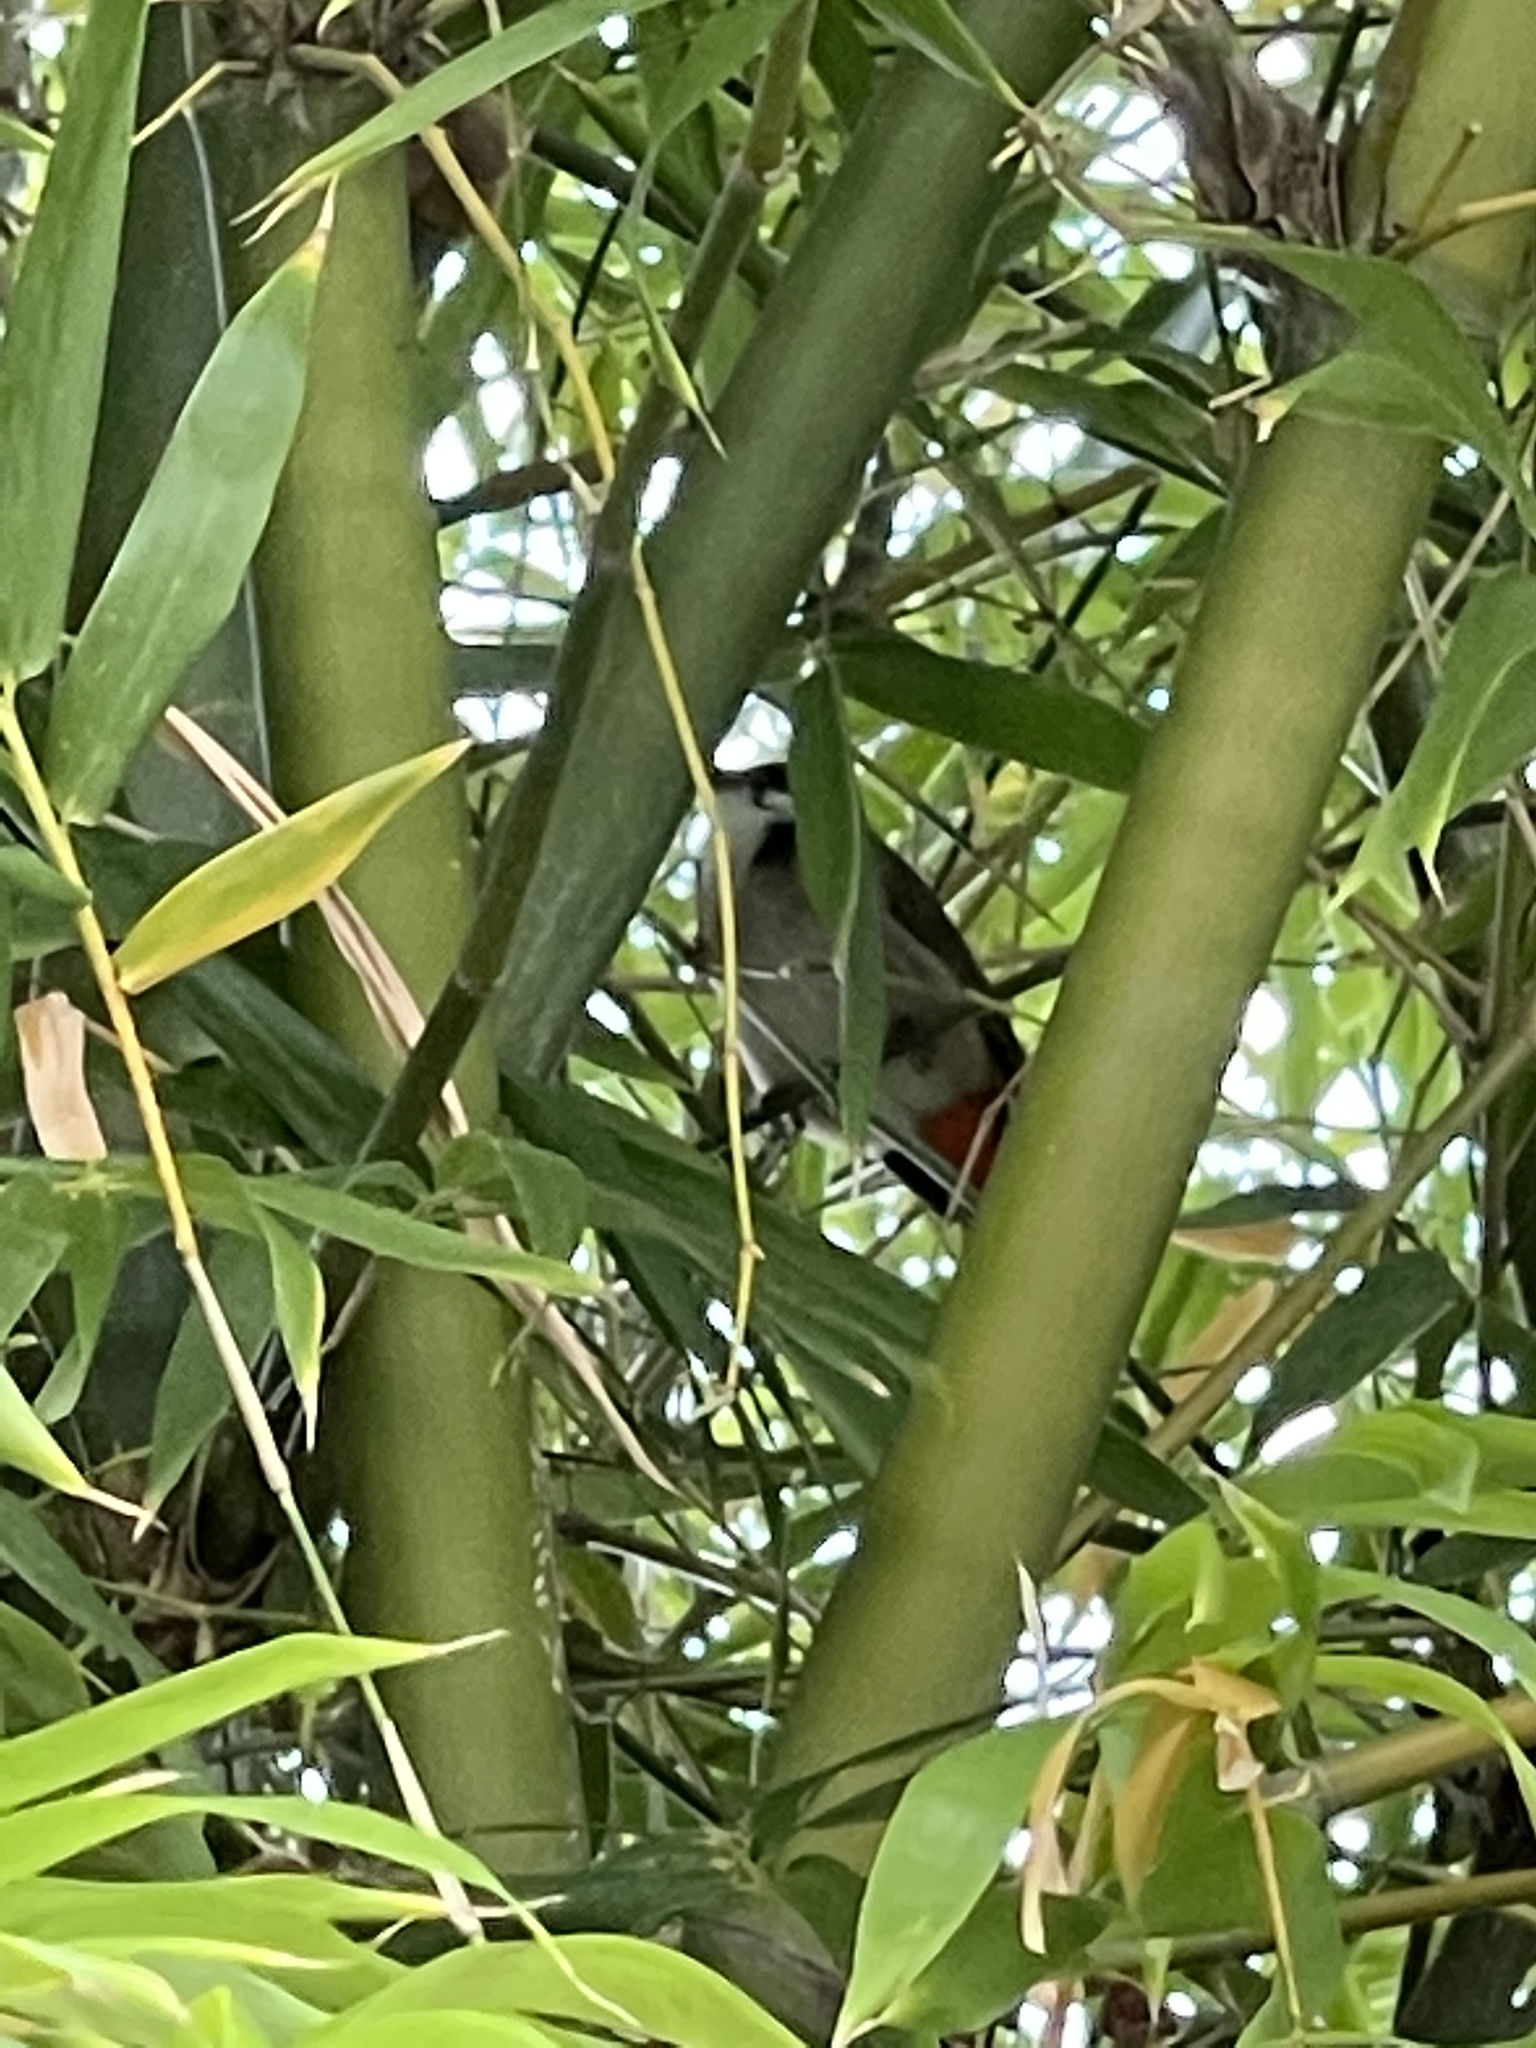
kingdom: Animalia
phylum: Chordata
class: Aves
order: Passeriformes
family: Pycnonotidae
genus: Pycnonotus
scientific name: Pycnonotus jocosus
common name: Red-whiskered bulbul
